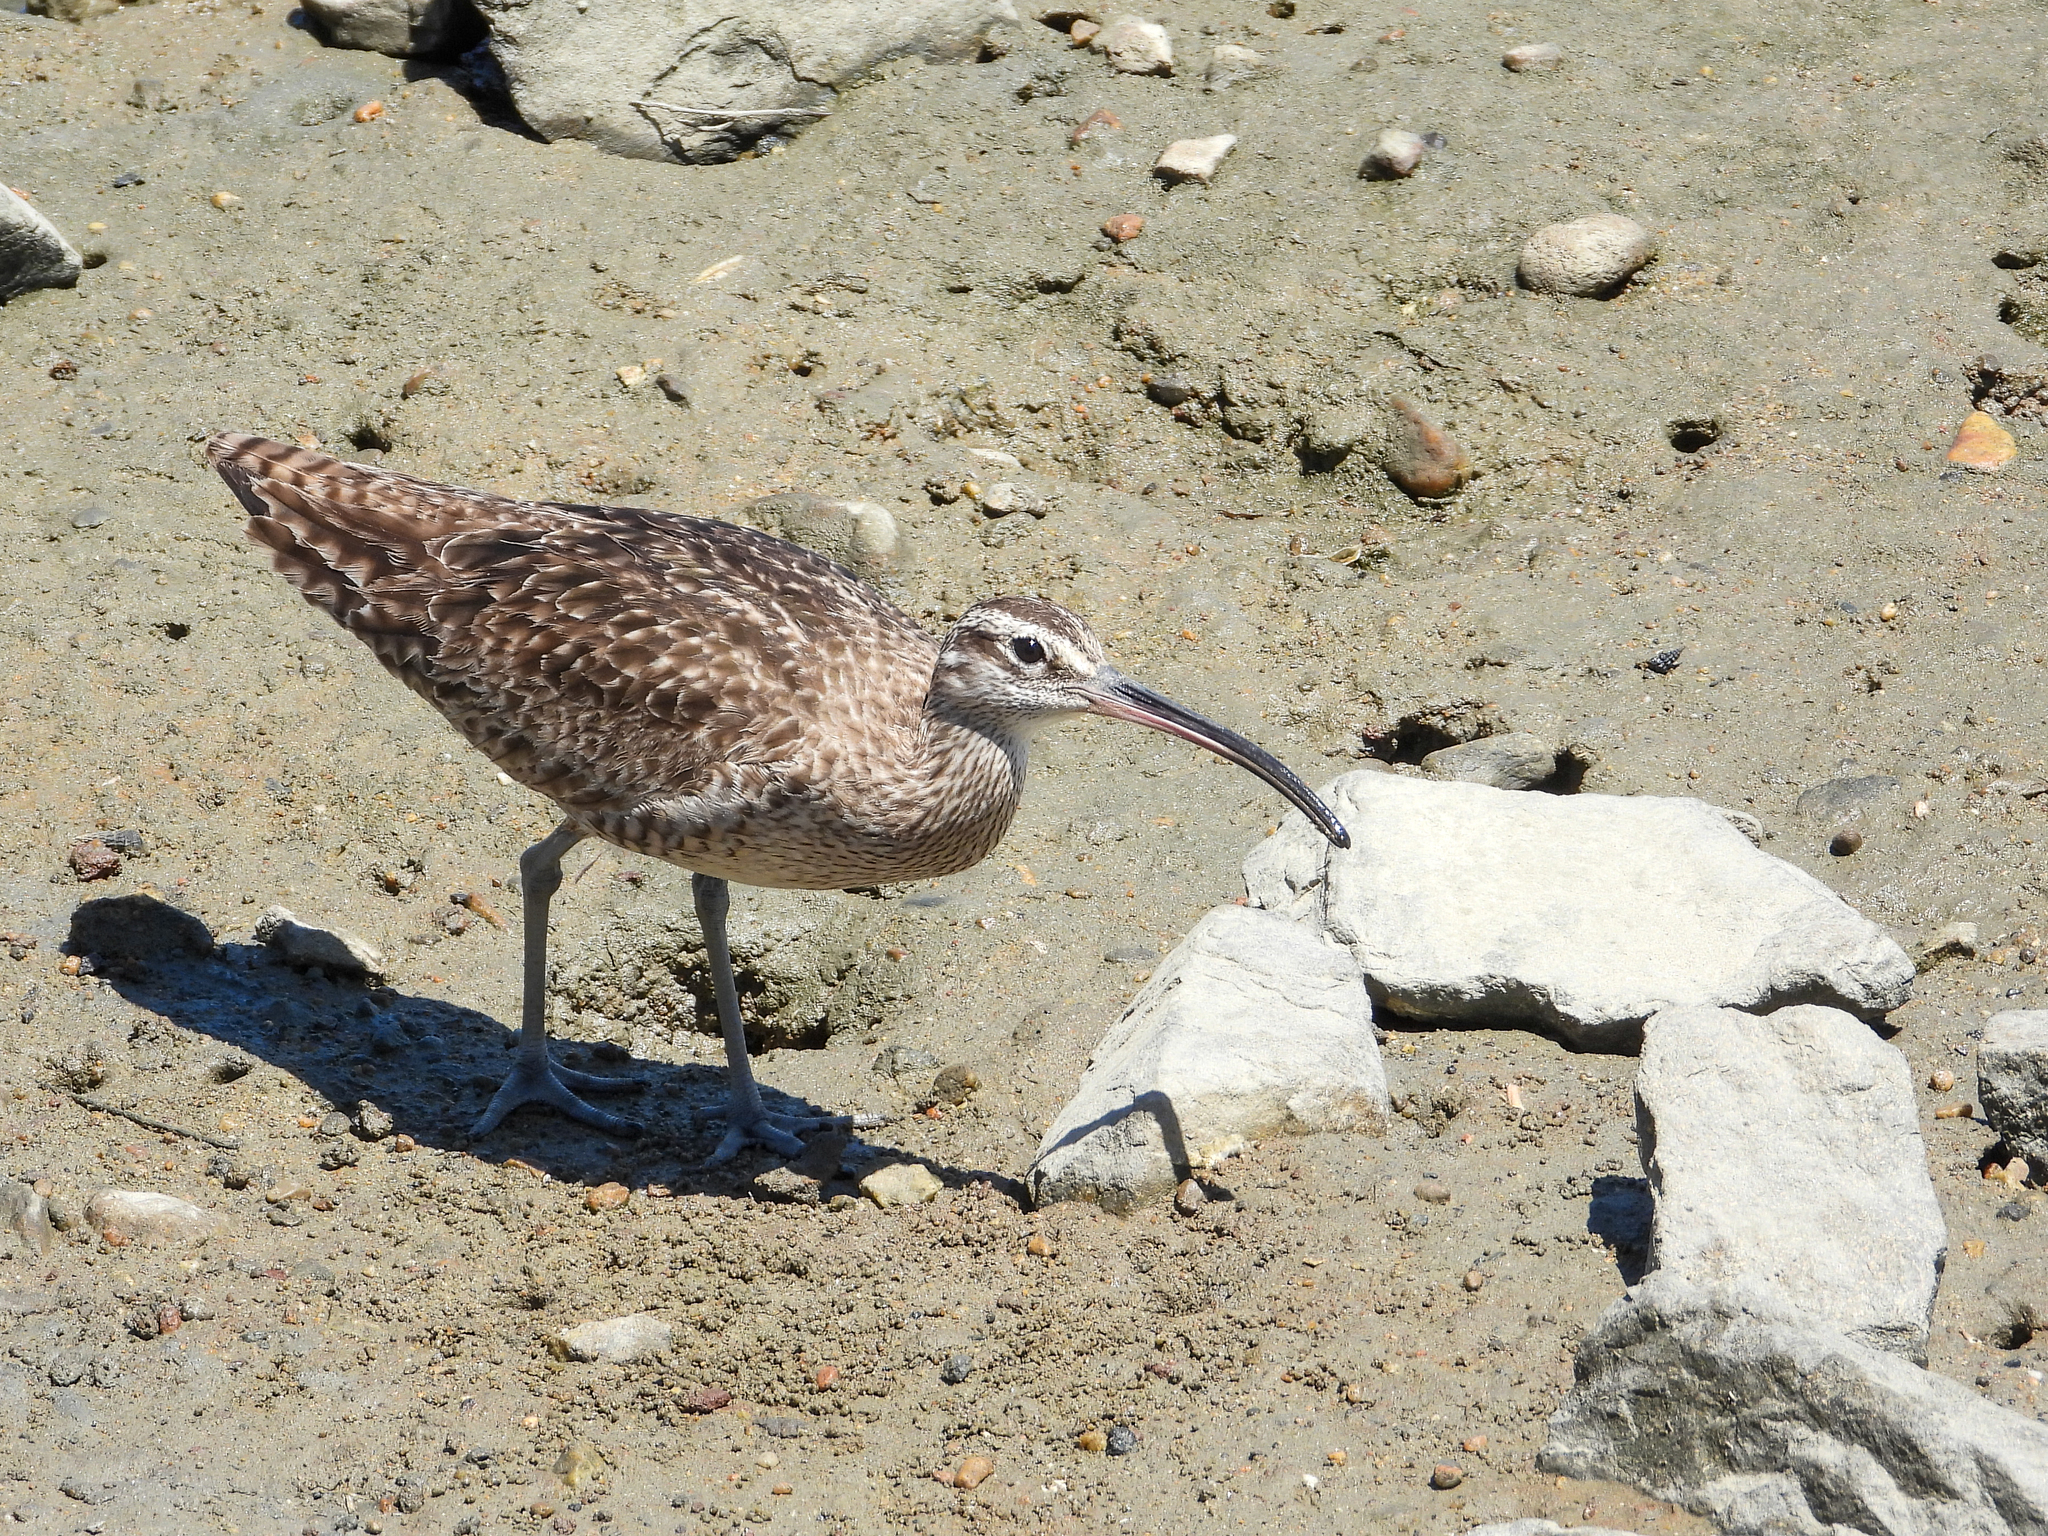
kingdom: Animalia
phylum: Chordata
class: Aves
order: Charadriiformes
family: Scolopacidae
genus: Numenius
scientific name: Numenius phaeopus
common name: Whimbrel
